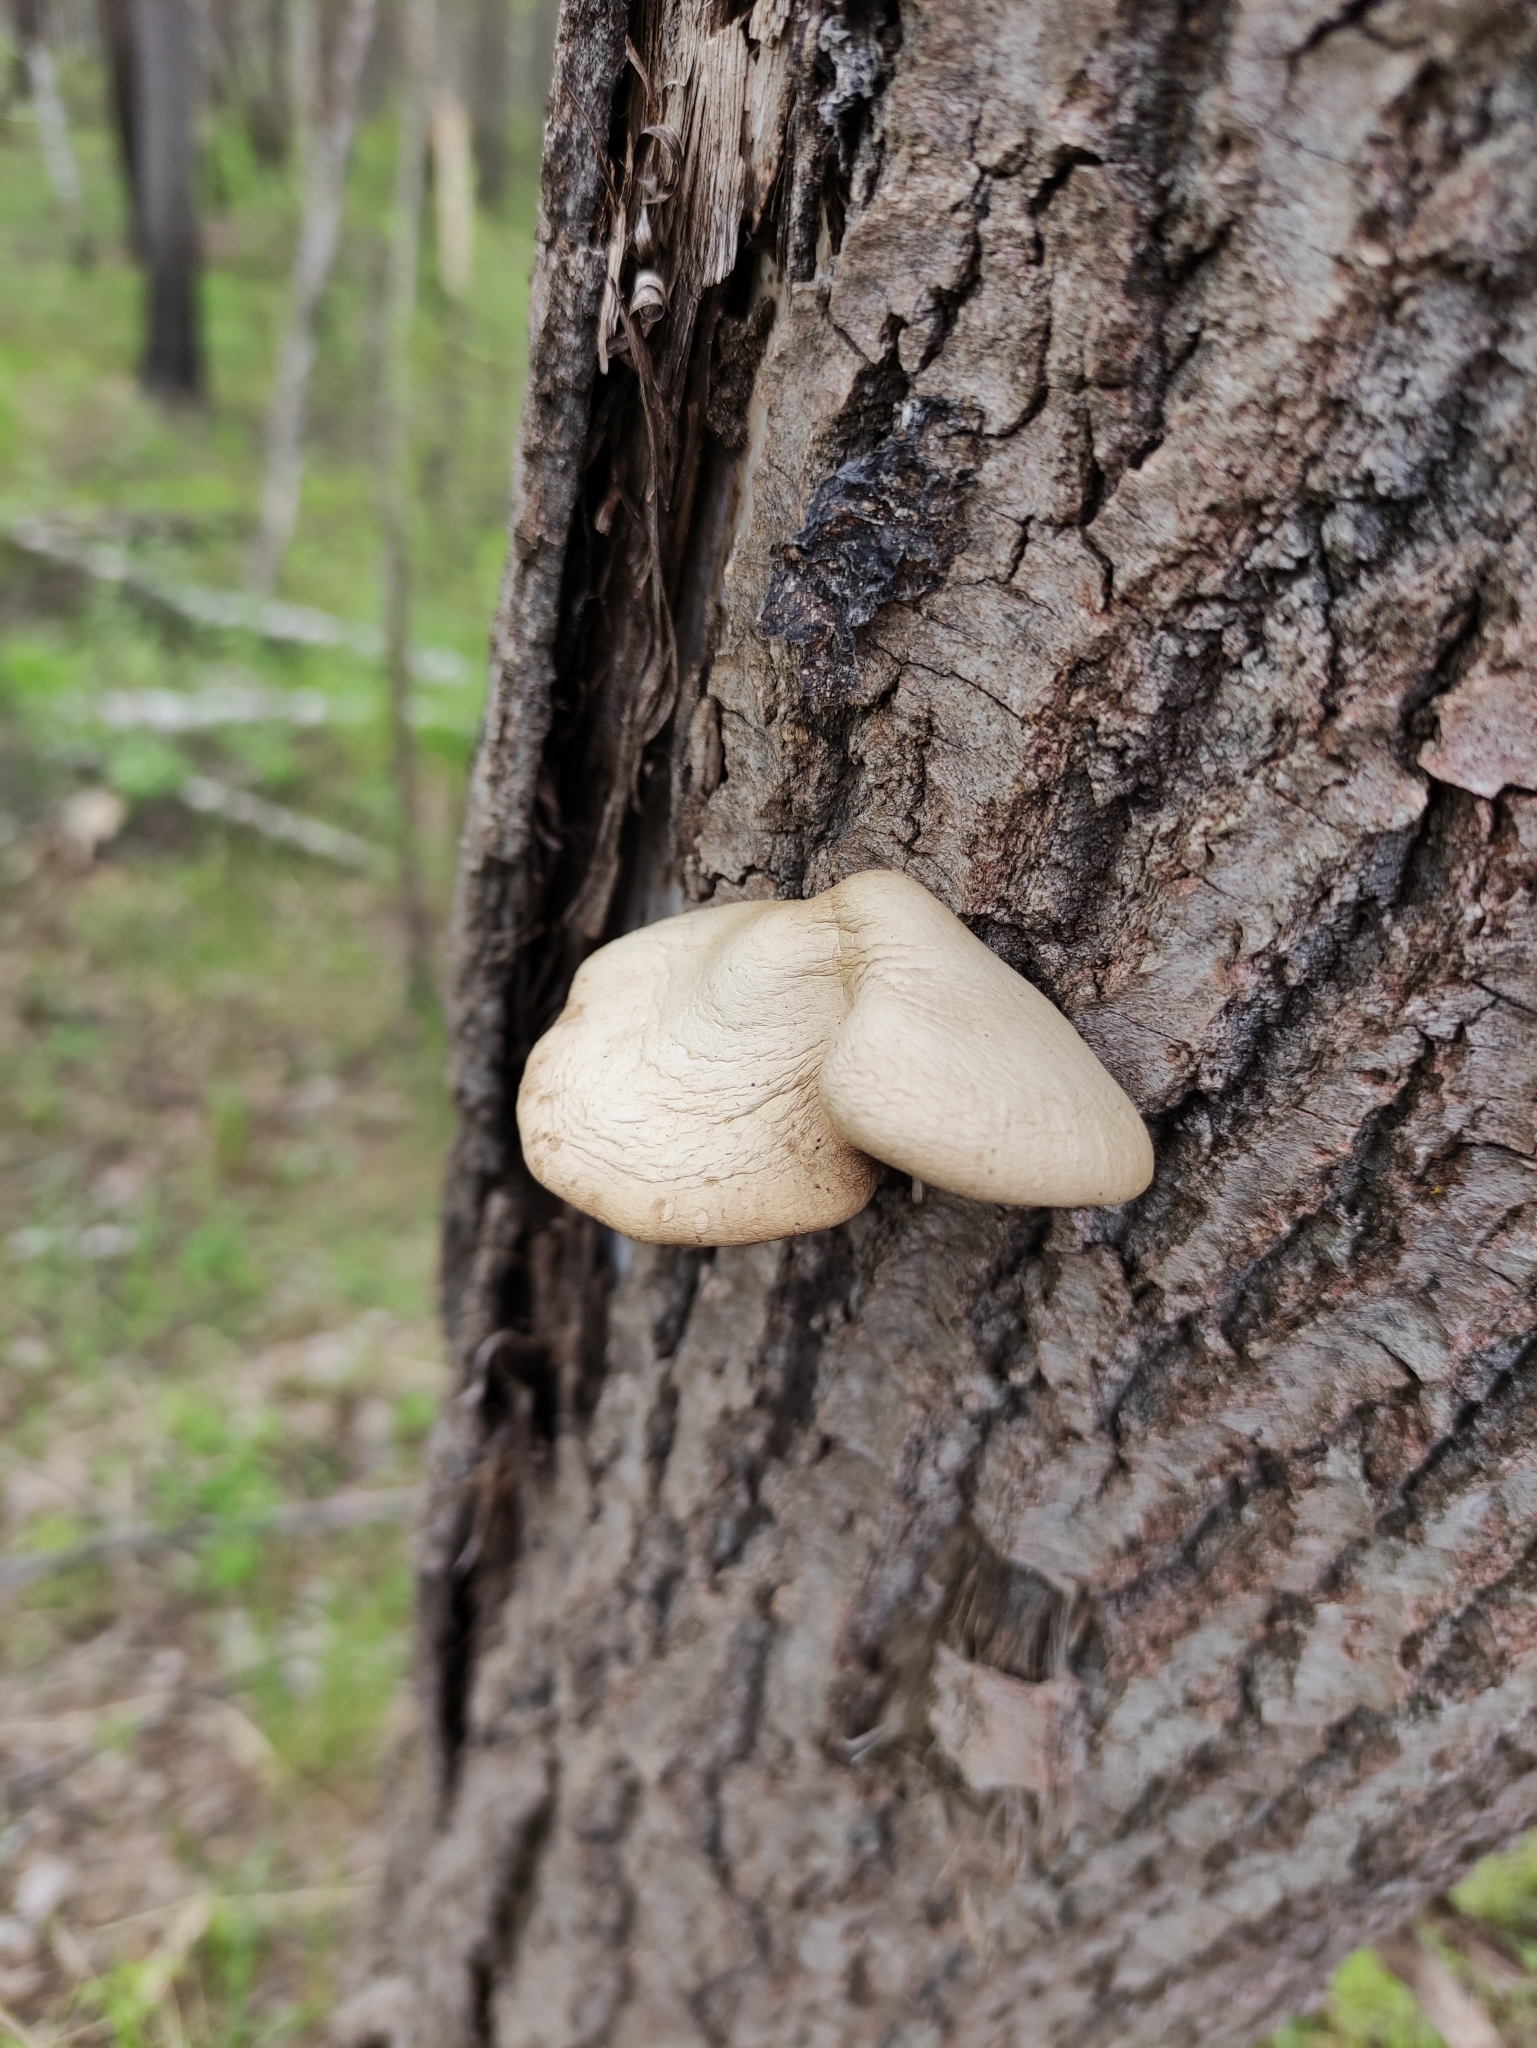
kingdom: Fungi
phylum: Basidiomycota
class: Agaricomycetes
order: Agaricales
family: Pleurotaceae
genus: Pleurotus
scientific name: Pleurotus calyptratus
